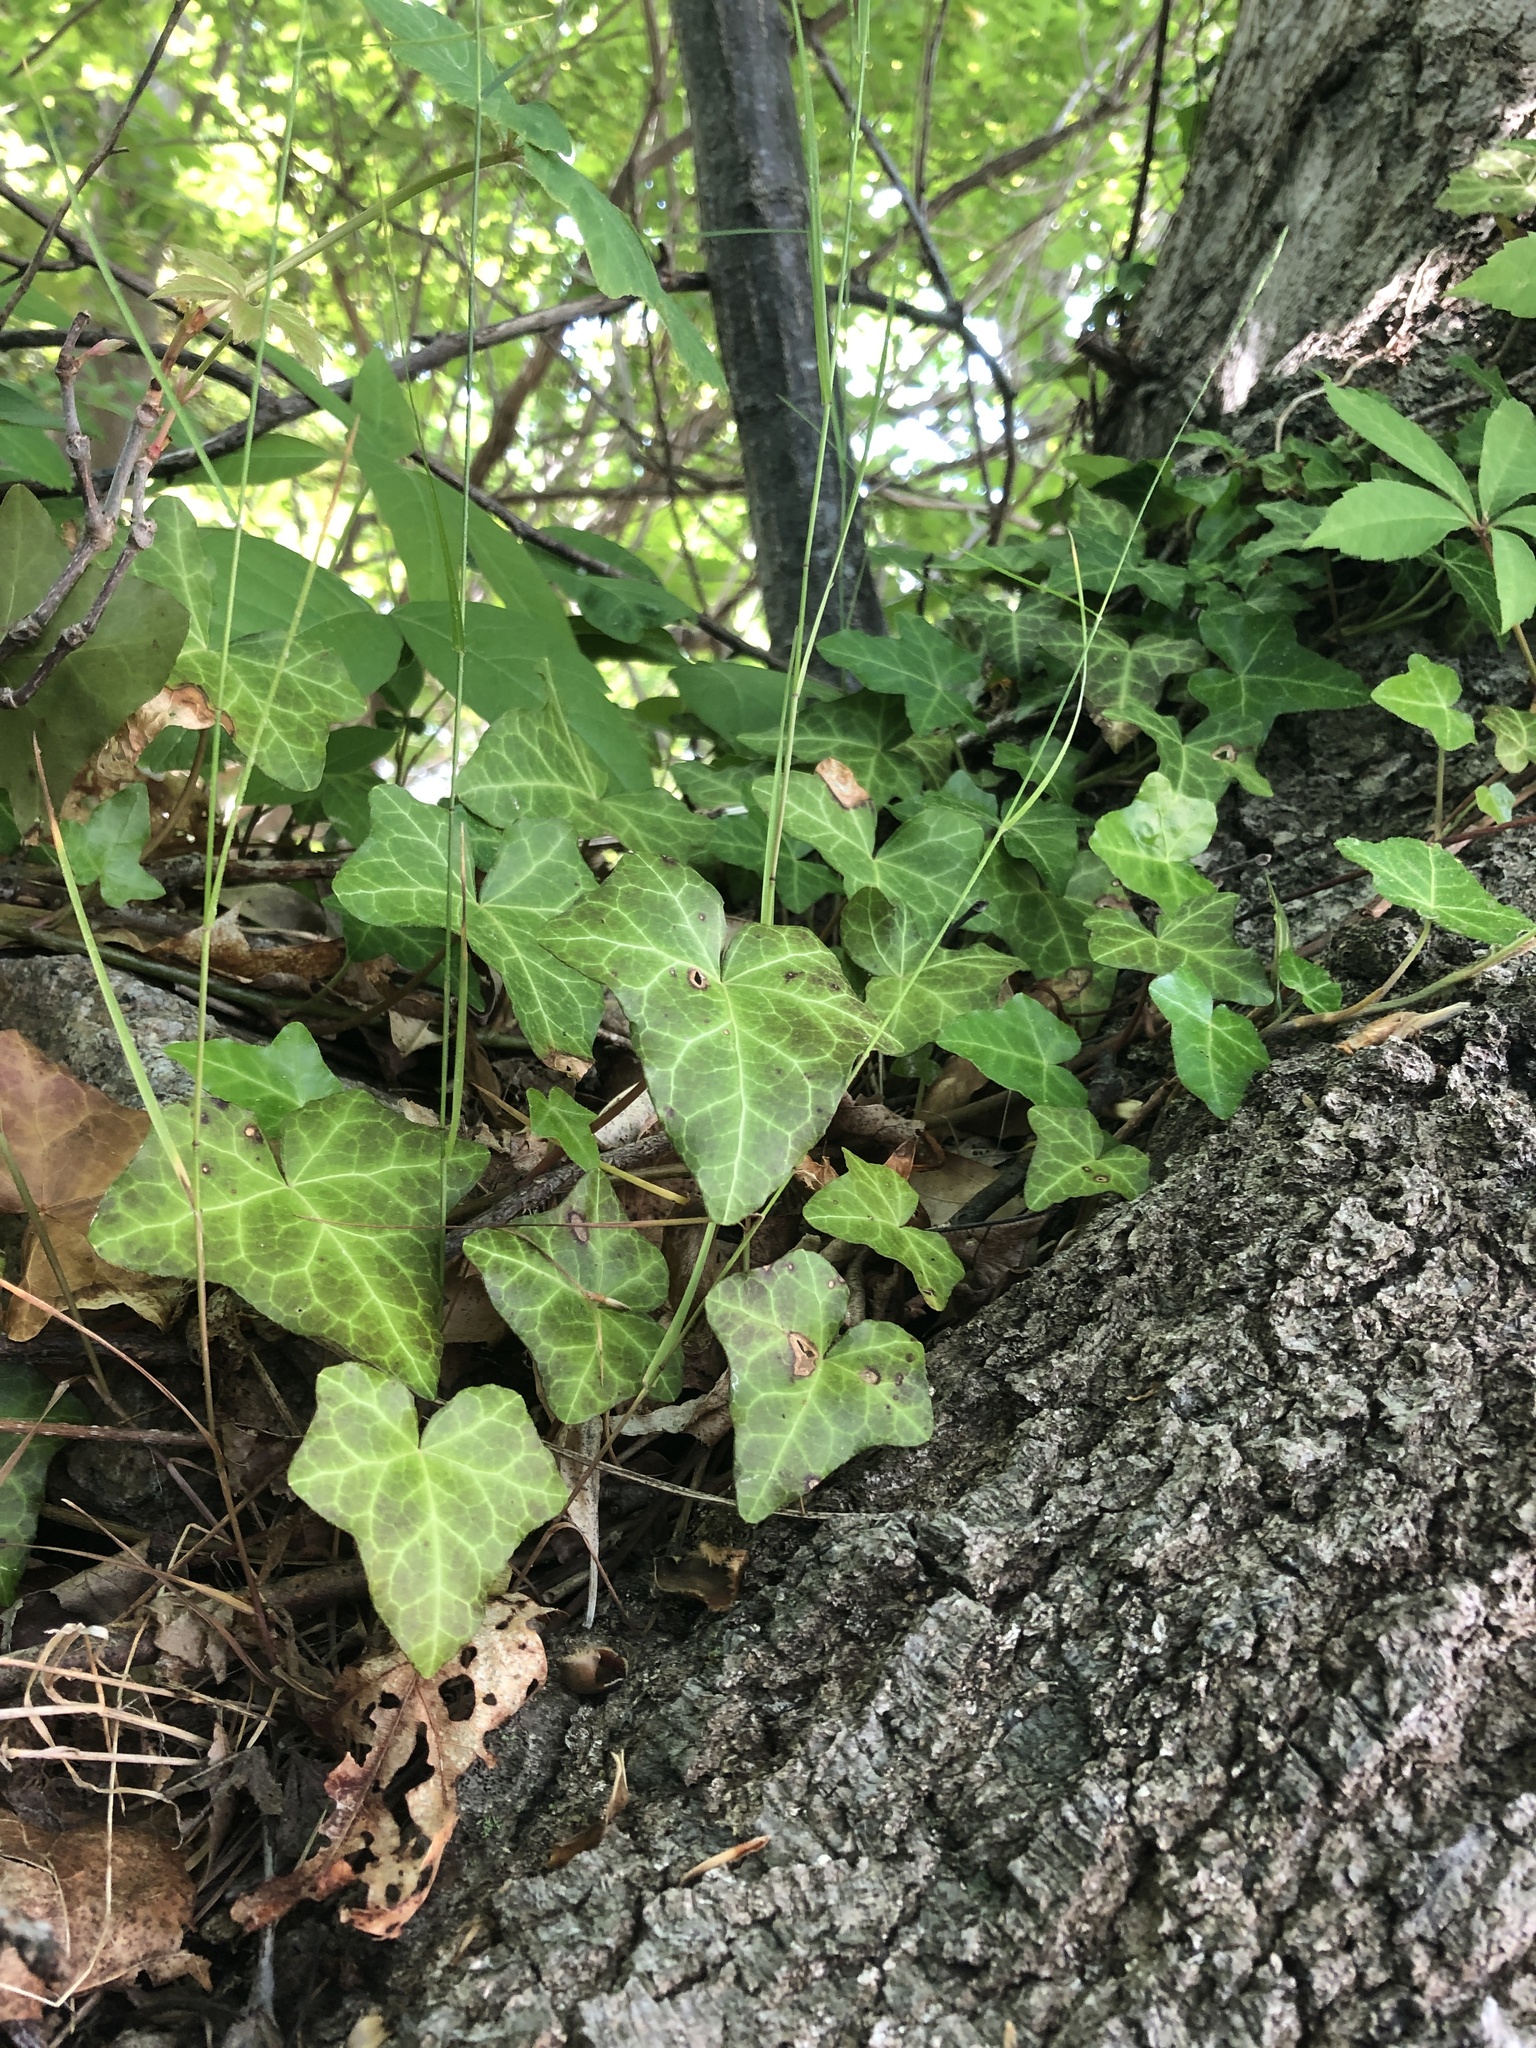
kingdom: Plantae
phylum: Tracheophyta
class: Magnoliopsida
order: Apiales
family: Araliaceae
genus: Hedera
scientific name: Hedera helix
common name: Ivy
